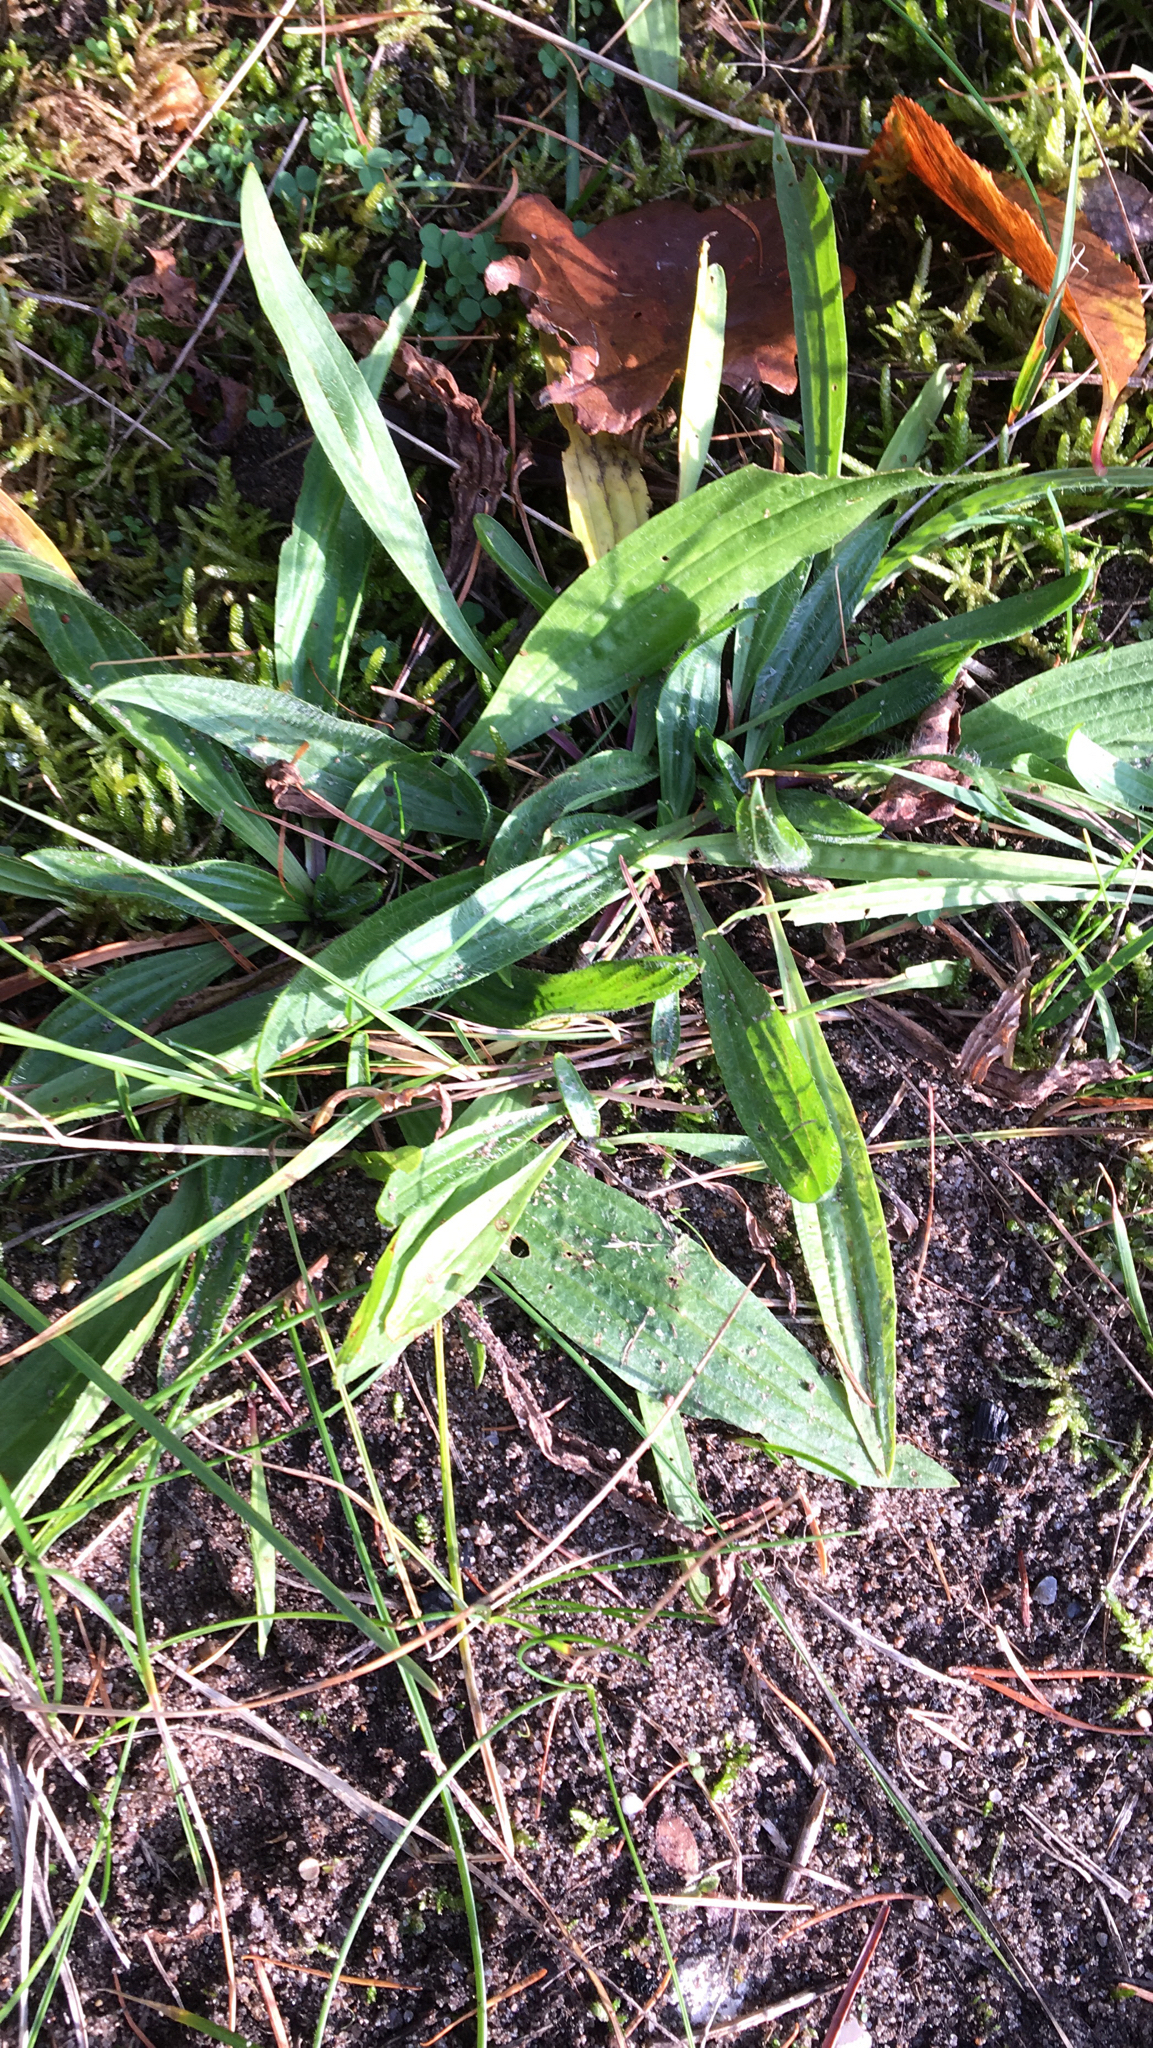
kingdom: Plantae
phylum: Tracheophyta
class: Magnoliopsida
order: Lamiales
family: Plantaginaceae
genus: Plantago
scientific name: Plantago lanceolata
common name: Ribwort plantain
